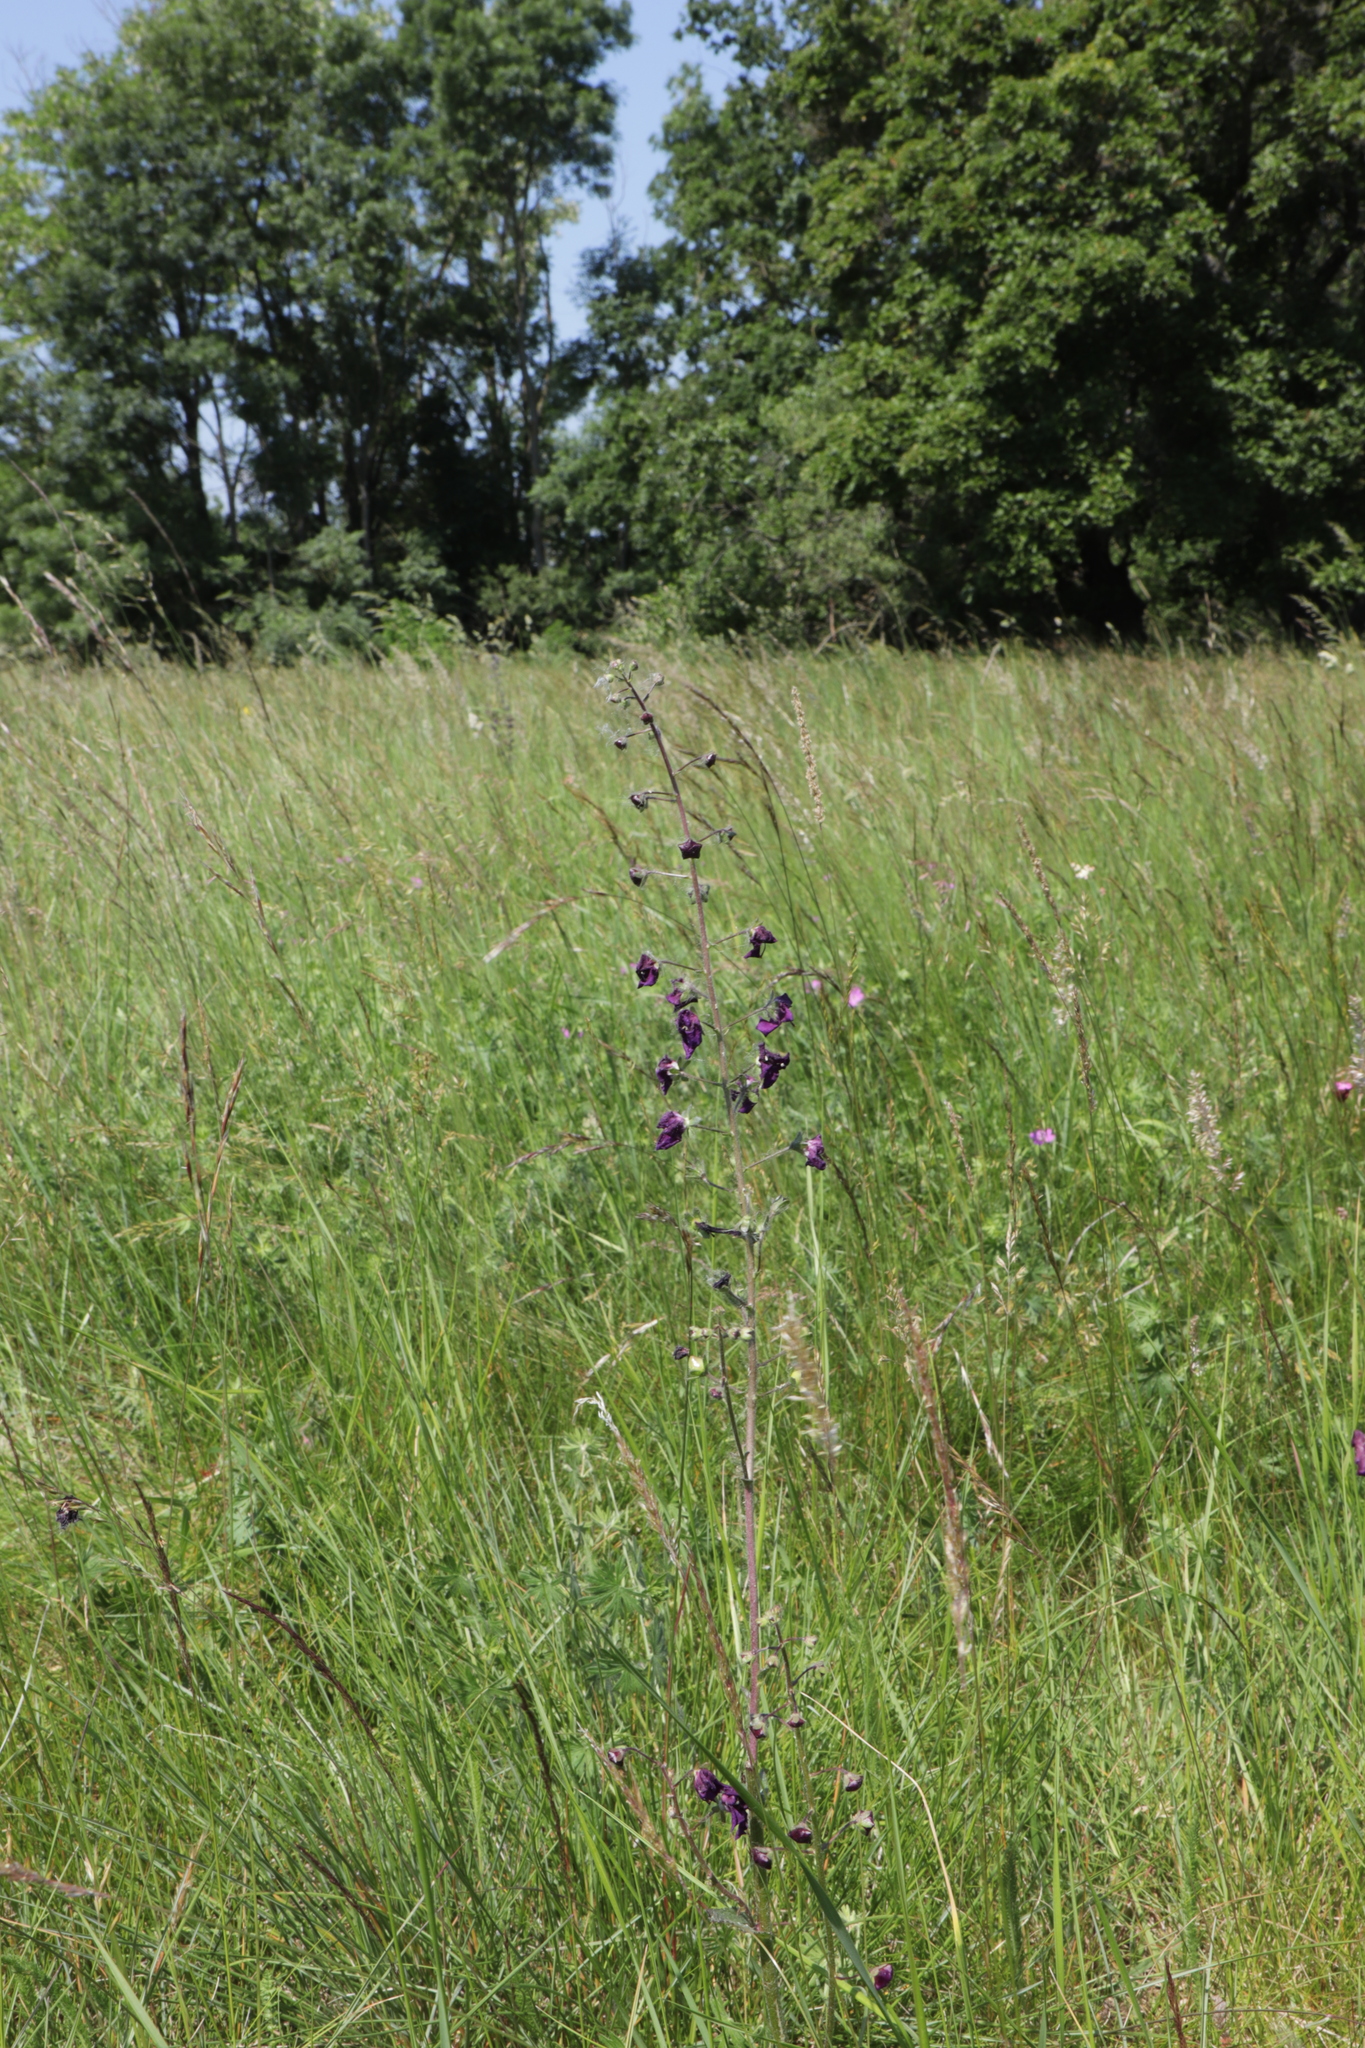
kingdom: Plantae
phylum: Tracheophyta
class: Magnoliopsida
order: Lamiales
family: Scrophulariaceae
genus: Verbascum
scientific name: Verbascum phoeniceum
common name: Purple mullein
